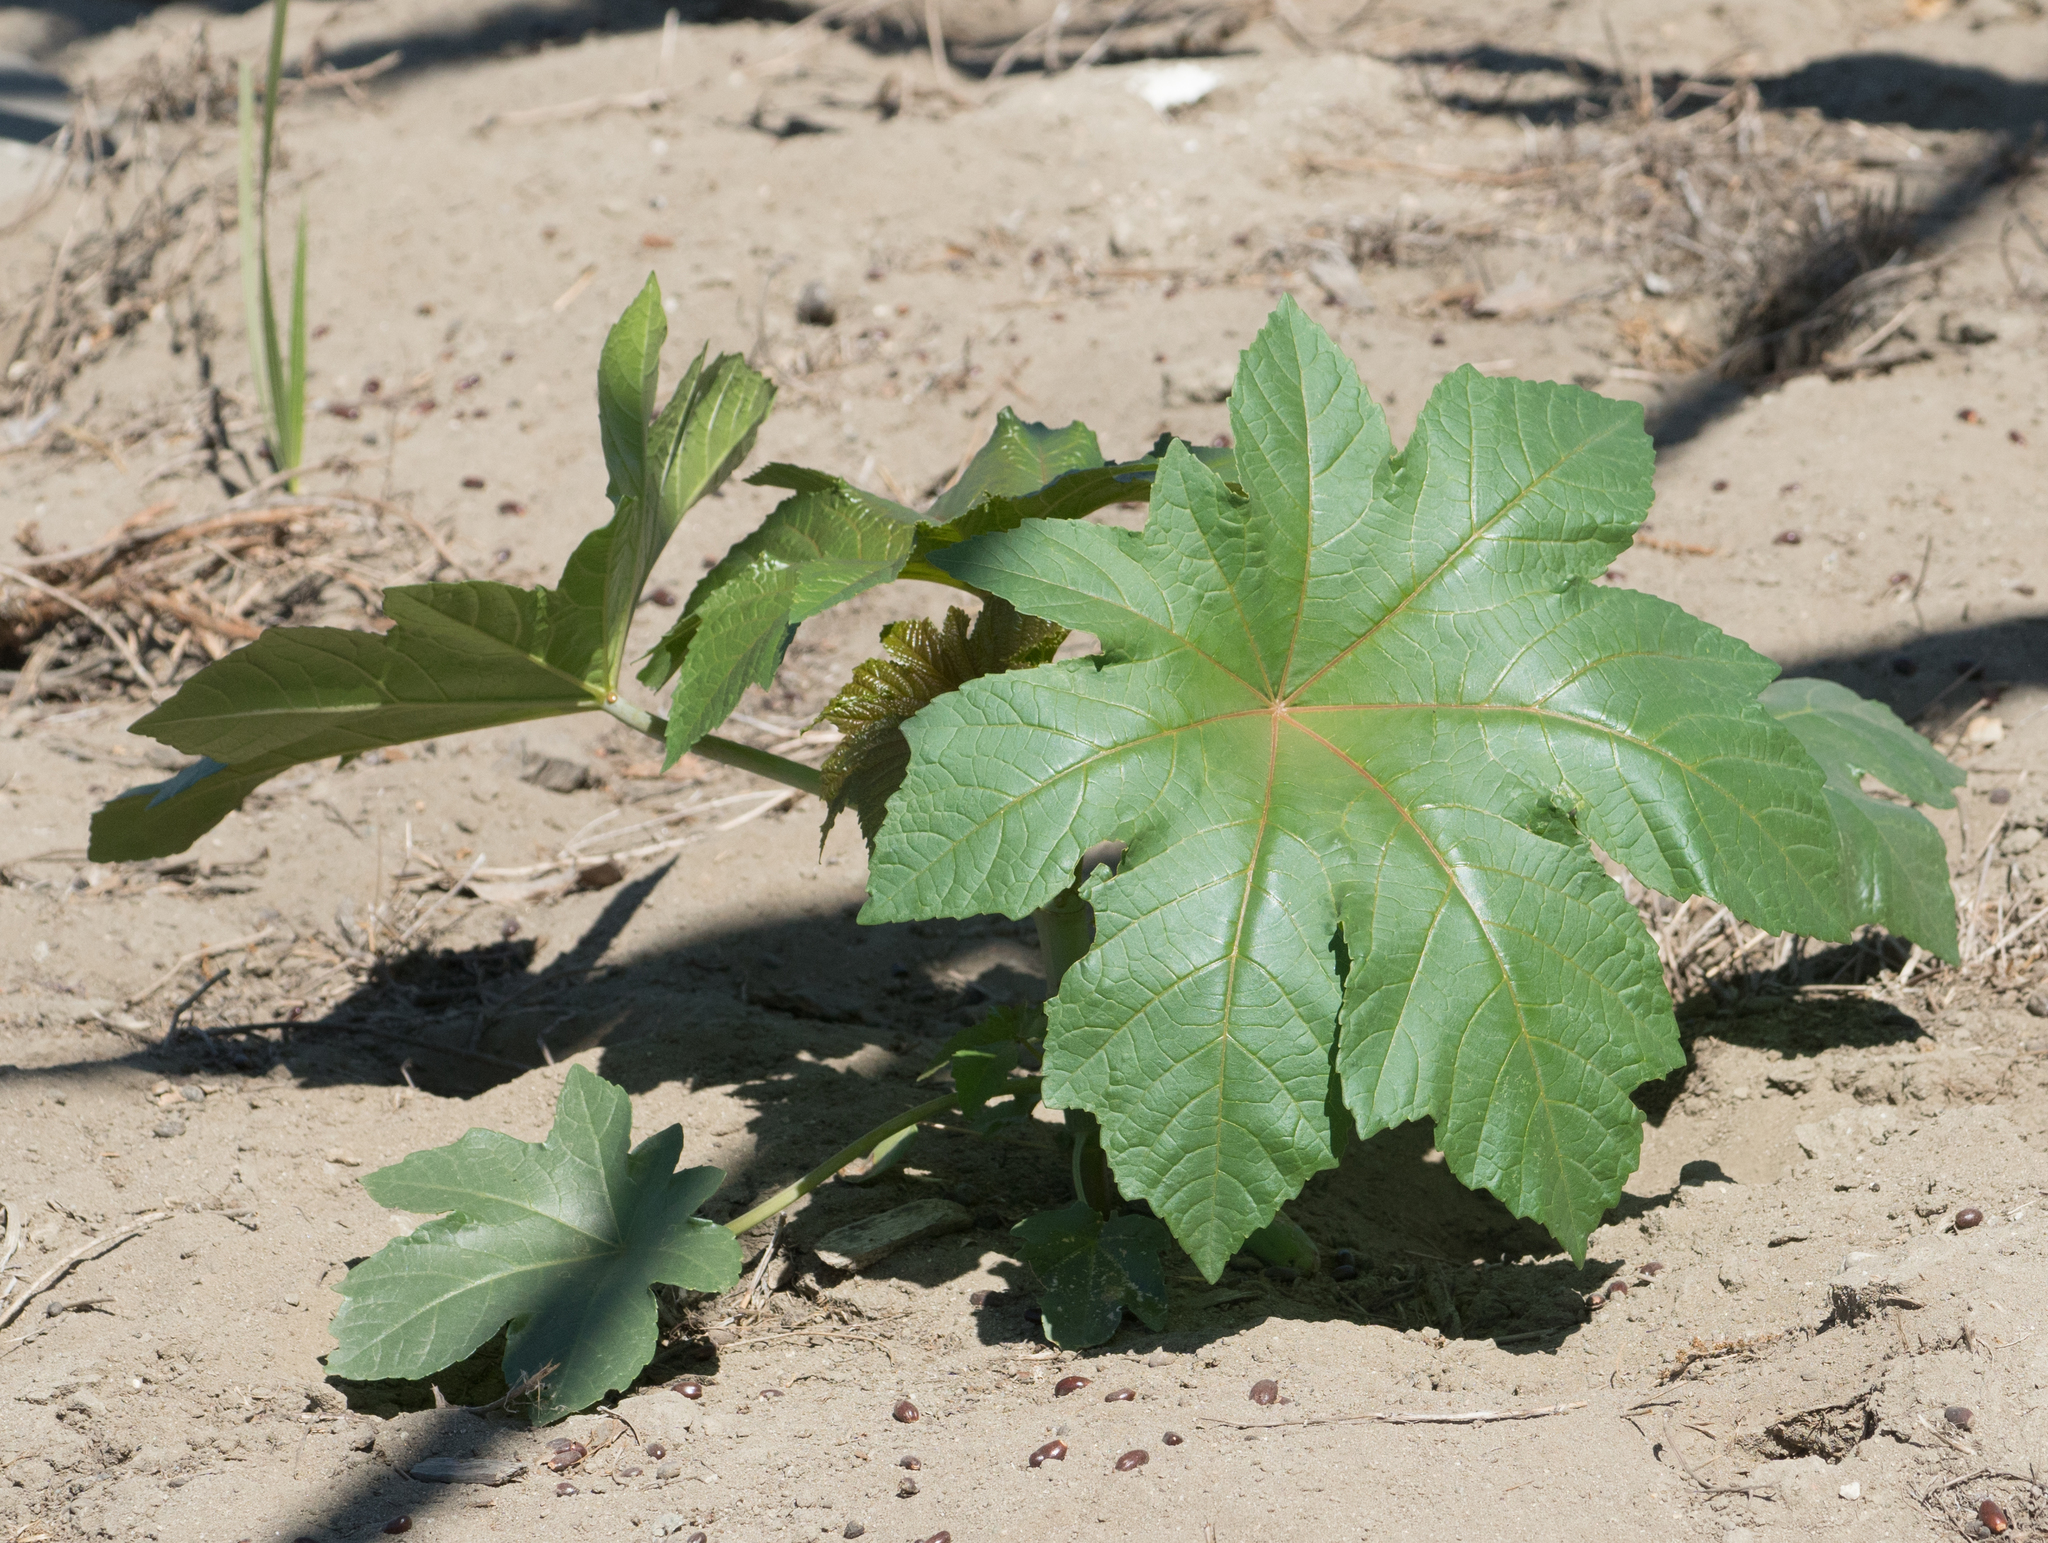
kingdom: Plantae
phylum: Tracheophyta
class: Magnoliopsida
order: Malpighiales
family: Euphorbiaceae
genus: Ricinus
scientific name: Ricinus communis
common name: Castor-oil-plant
